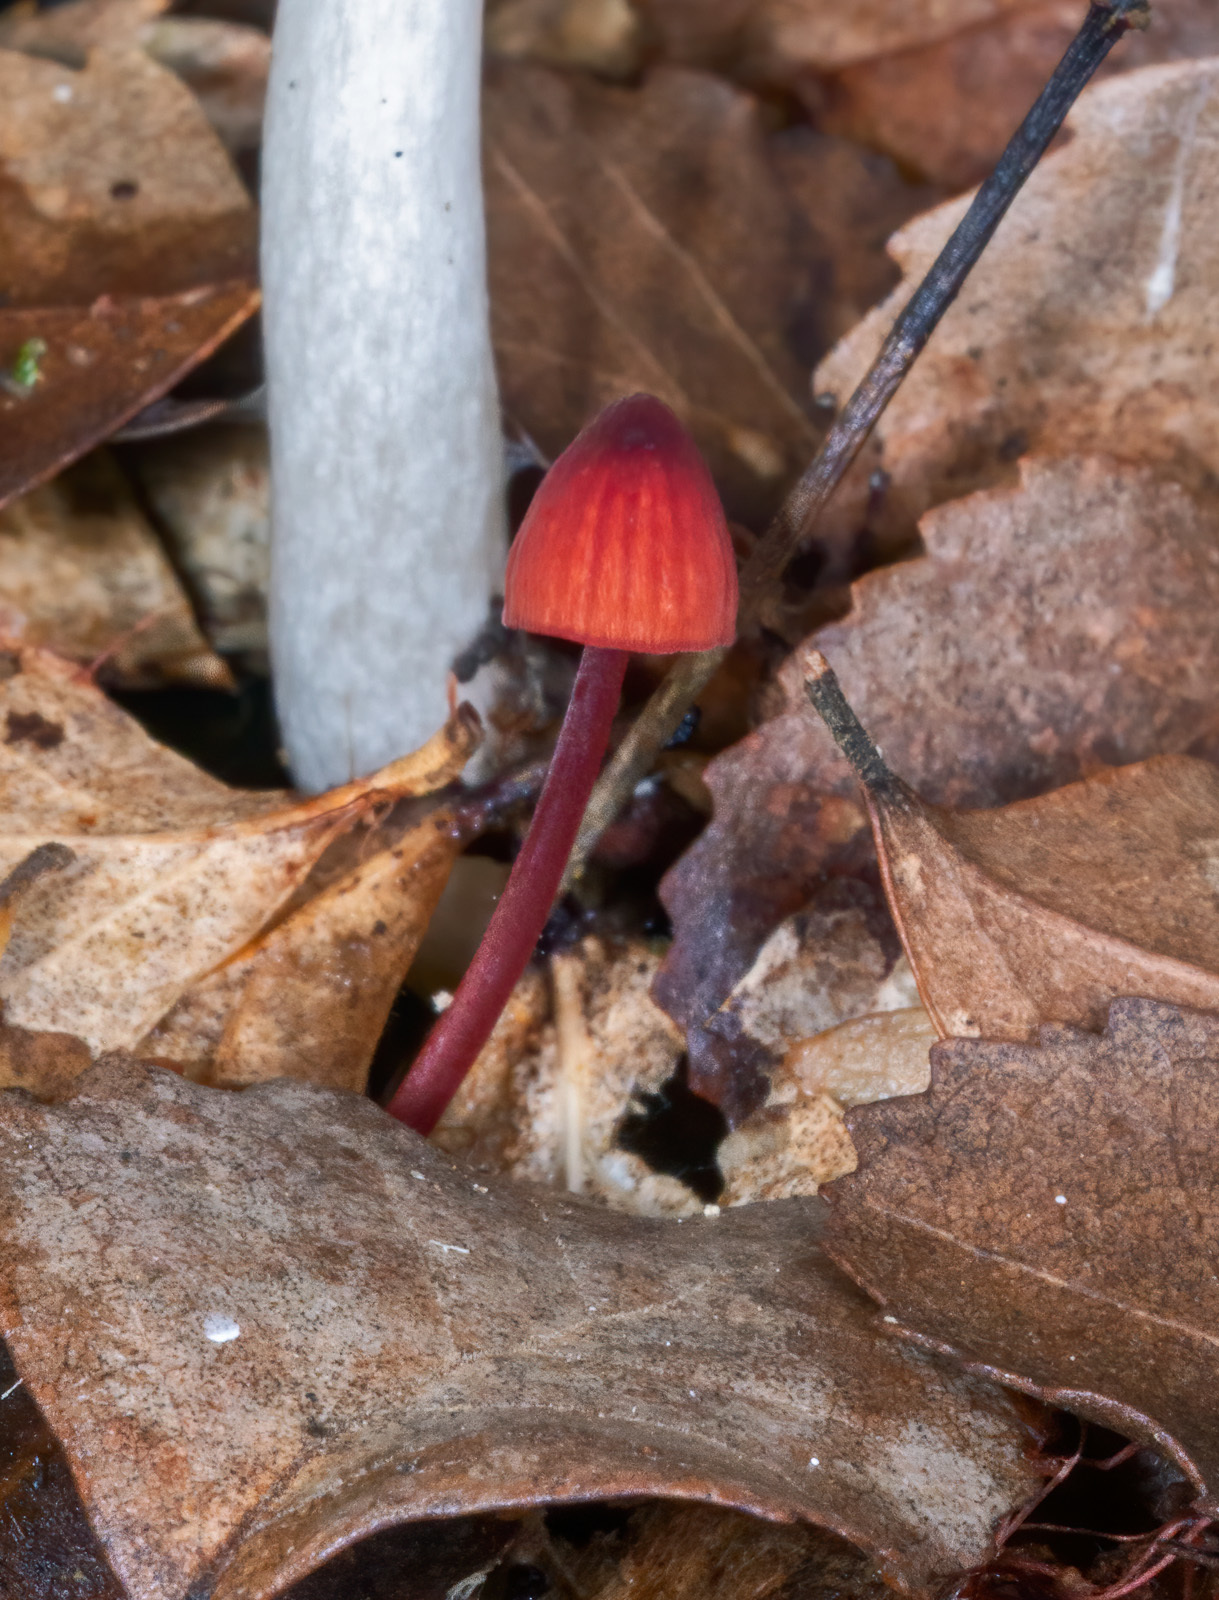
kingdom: Fungi
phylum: Basidiomycota
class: Agaricomycetes
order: Agaricales
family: Mycenaceae
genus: Mycena
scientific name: Mycena ura
